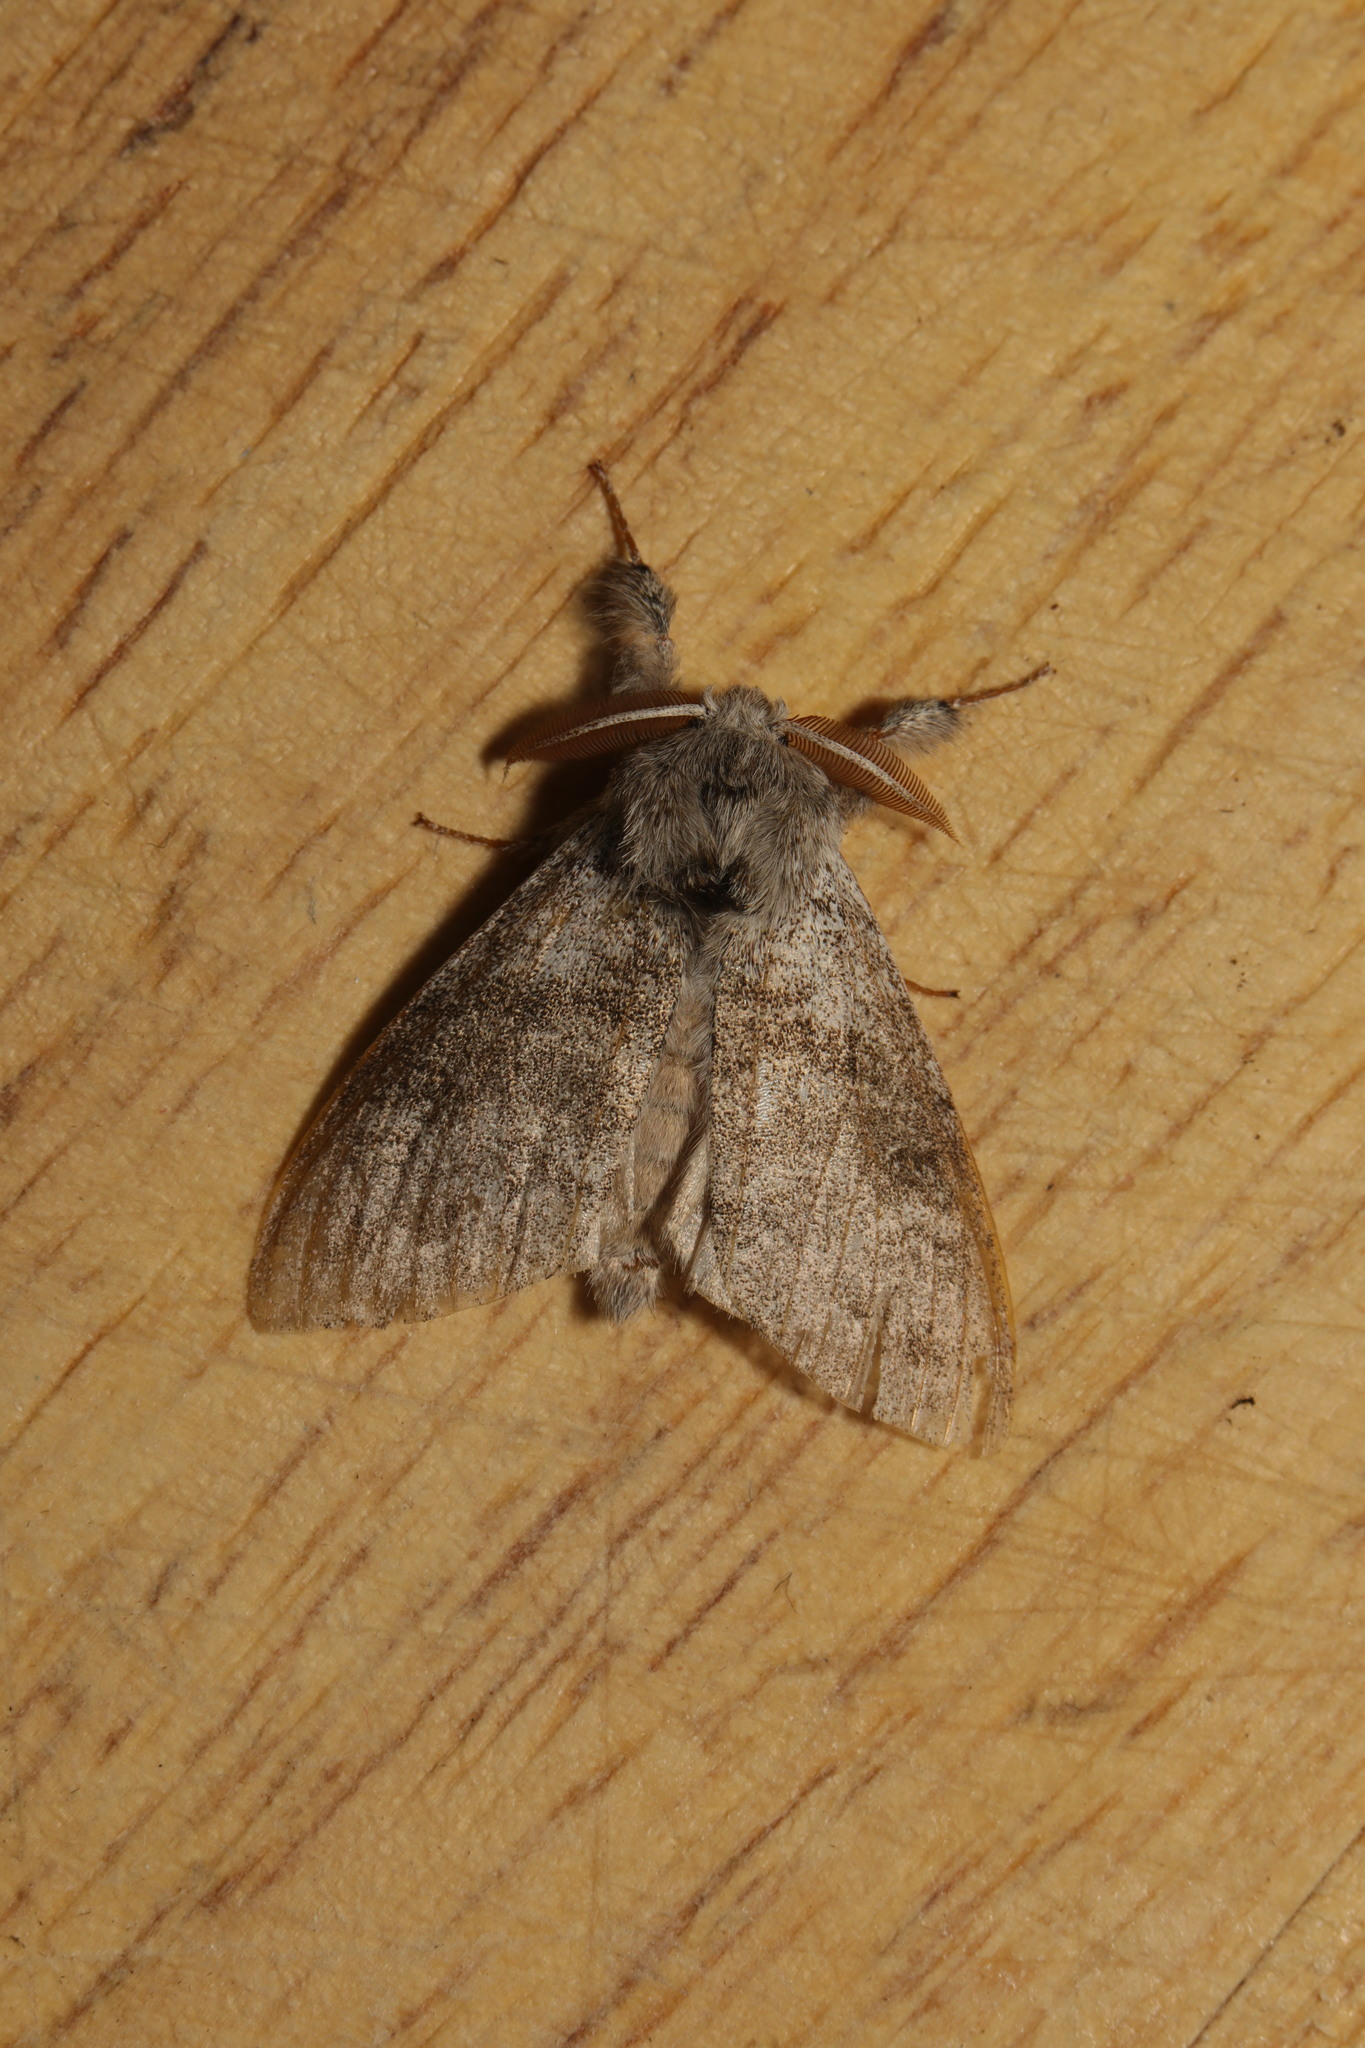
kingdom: Animalia
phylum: Arthropoda
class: Insecta
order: Lepidoptera
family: Erebidae
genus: Calliteara
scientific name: Calliteara pudibunda
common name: Pale tussock
